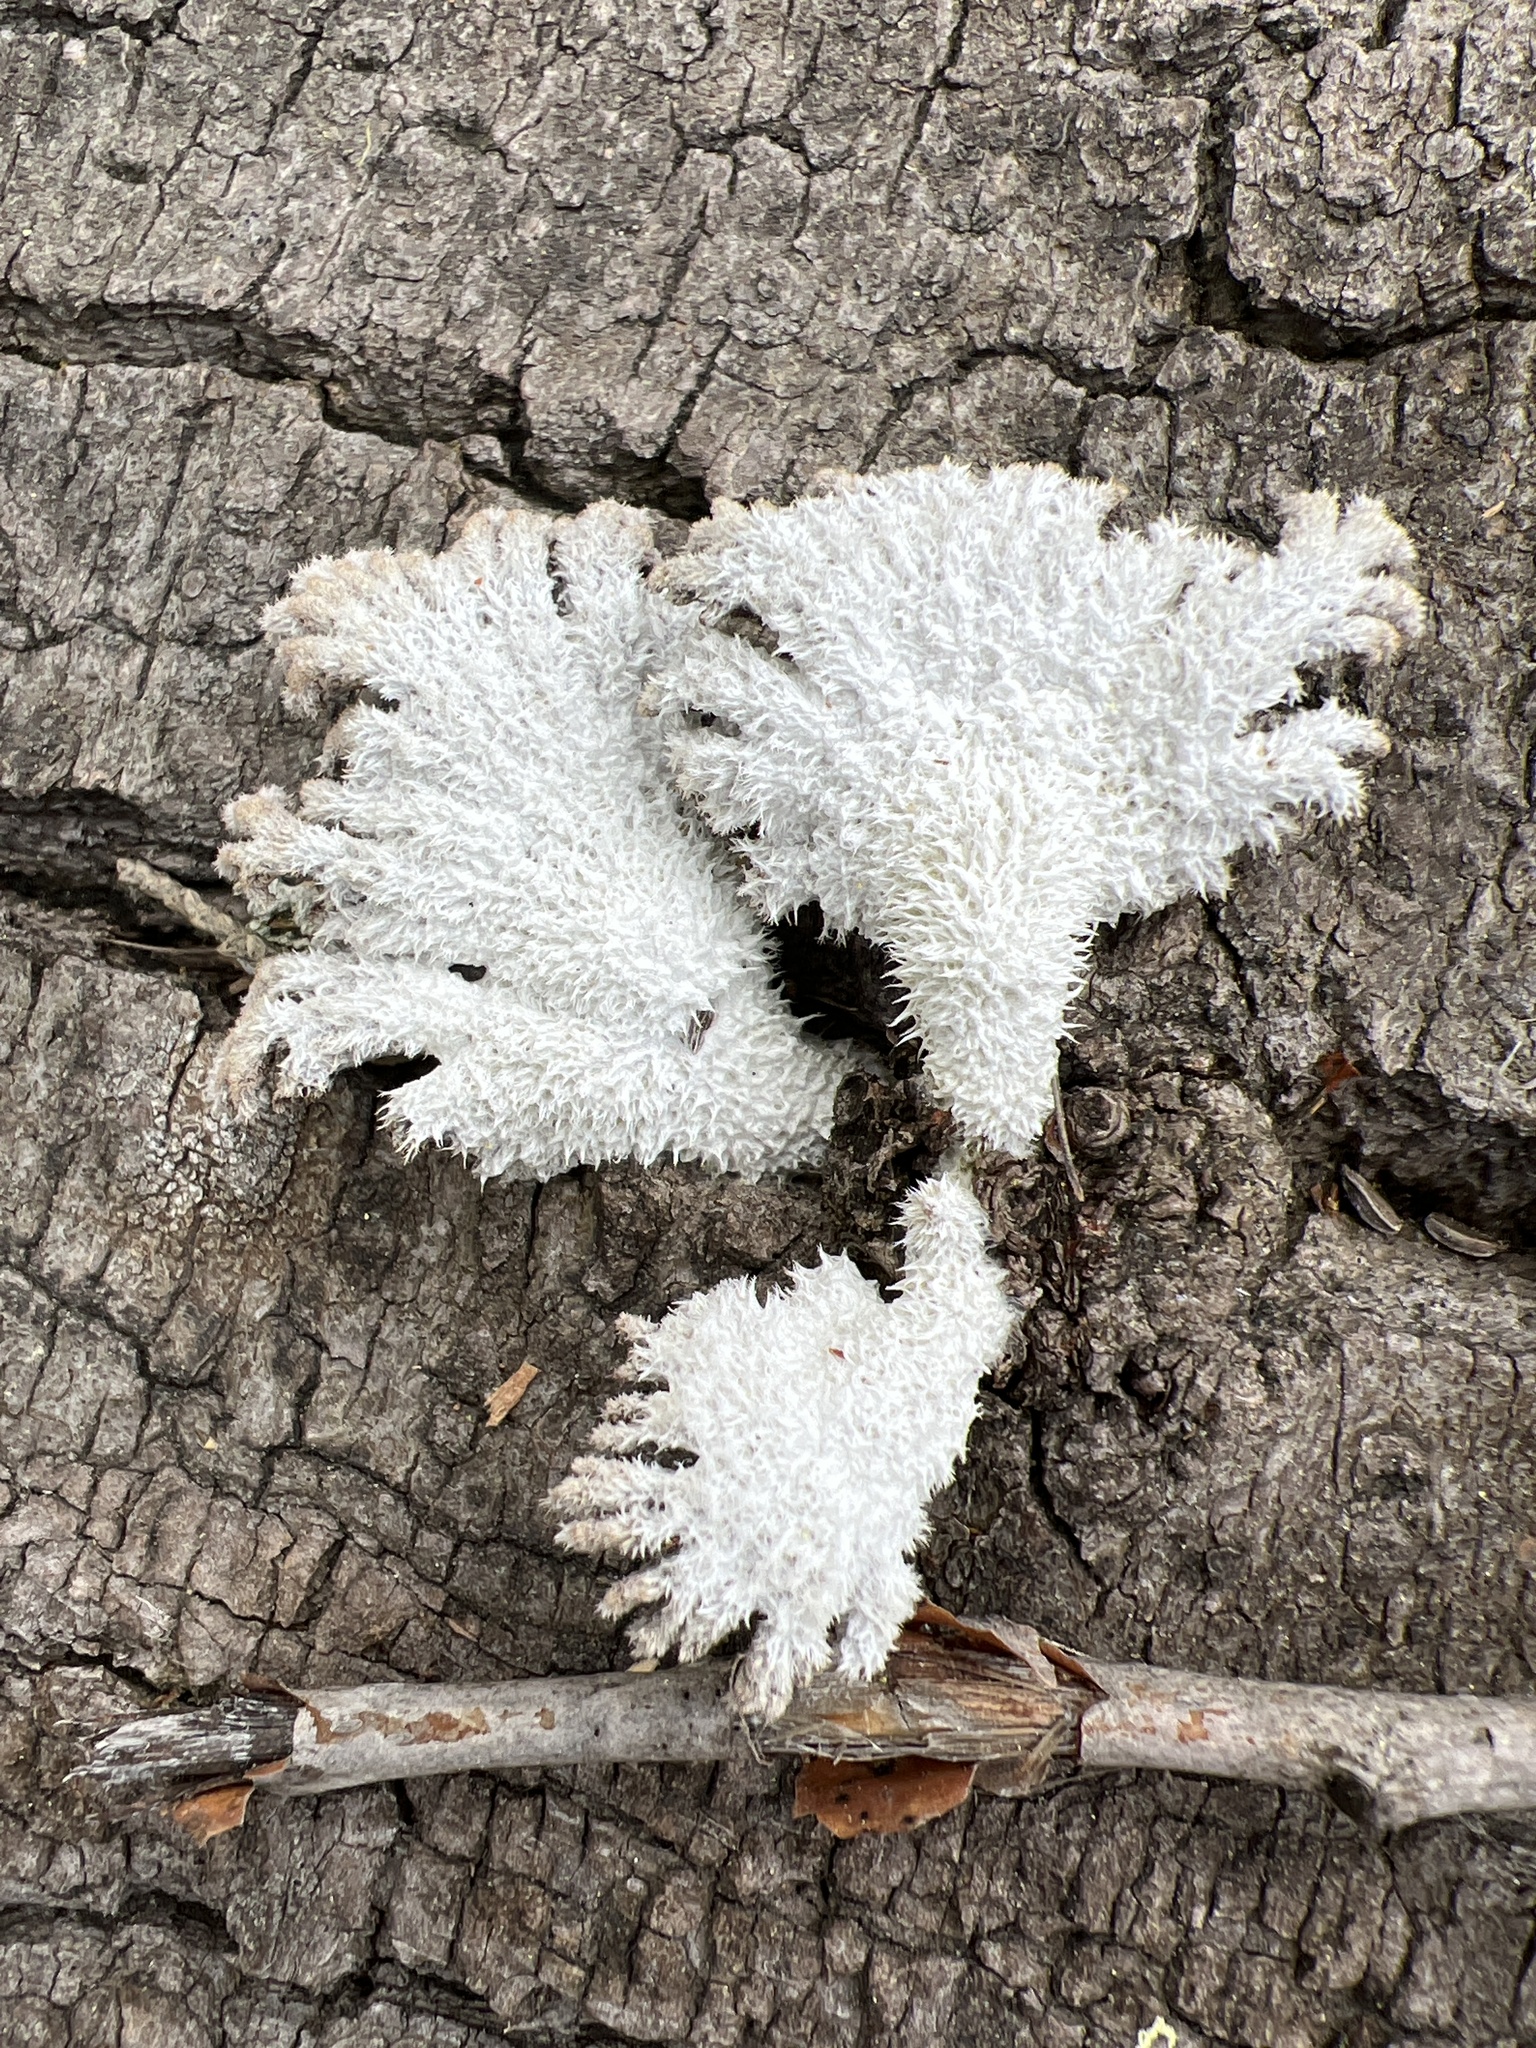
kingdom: Fungi
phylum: Basidiomycota
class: Agaricomycetes
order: Agaricales
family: Schizophyllaceae
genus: Schizophyllum
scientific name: Schizophyllum commune
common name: Common porecrust
